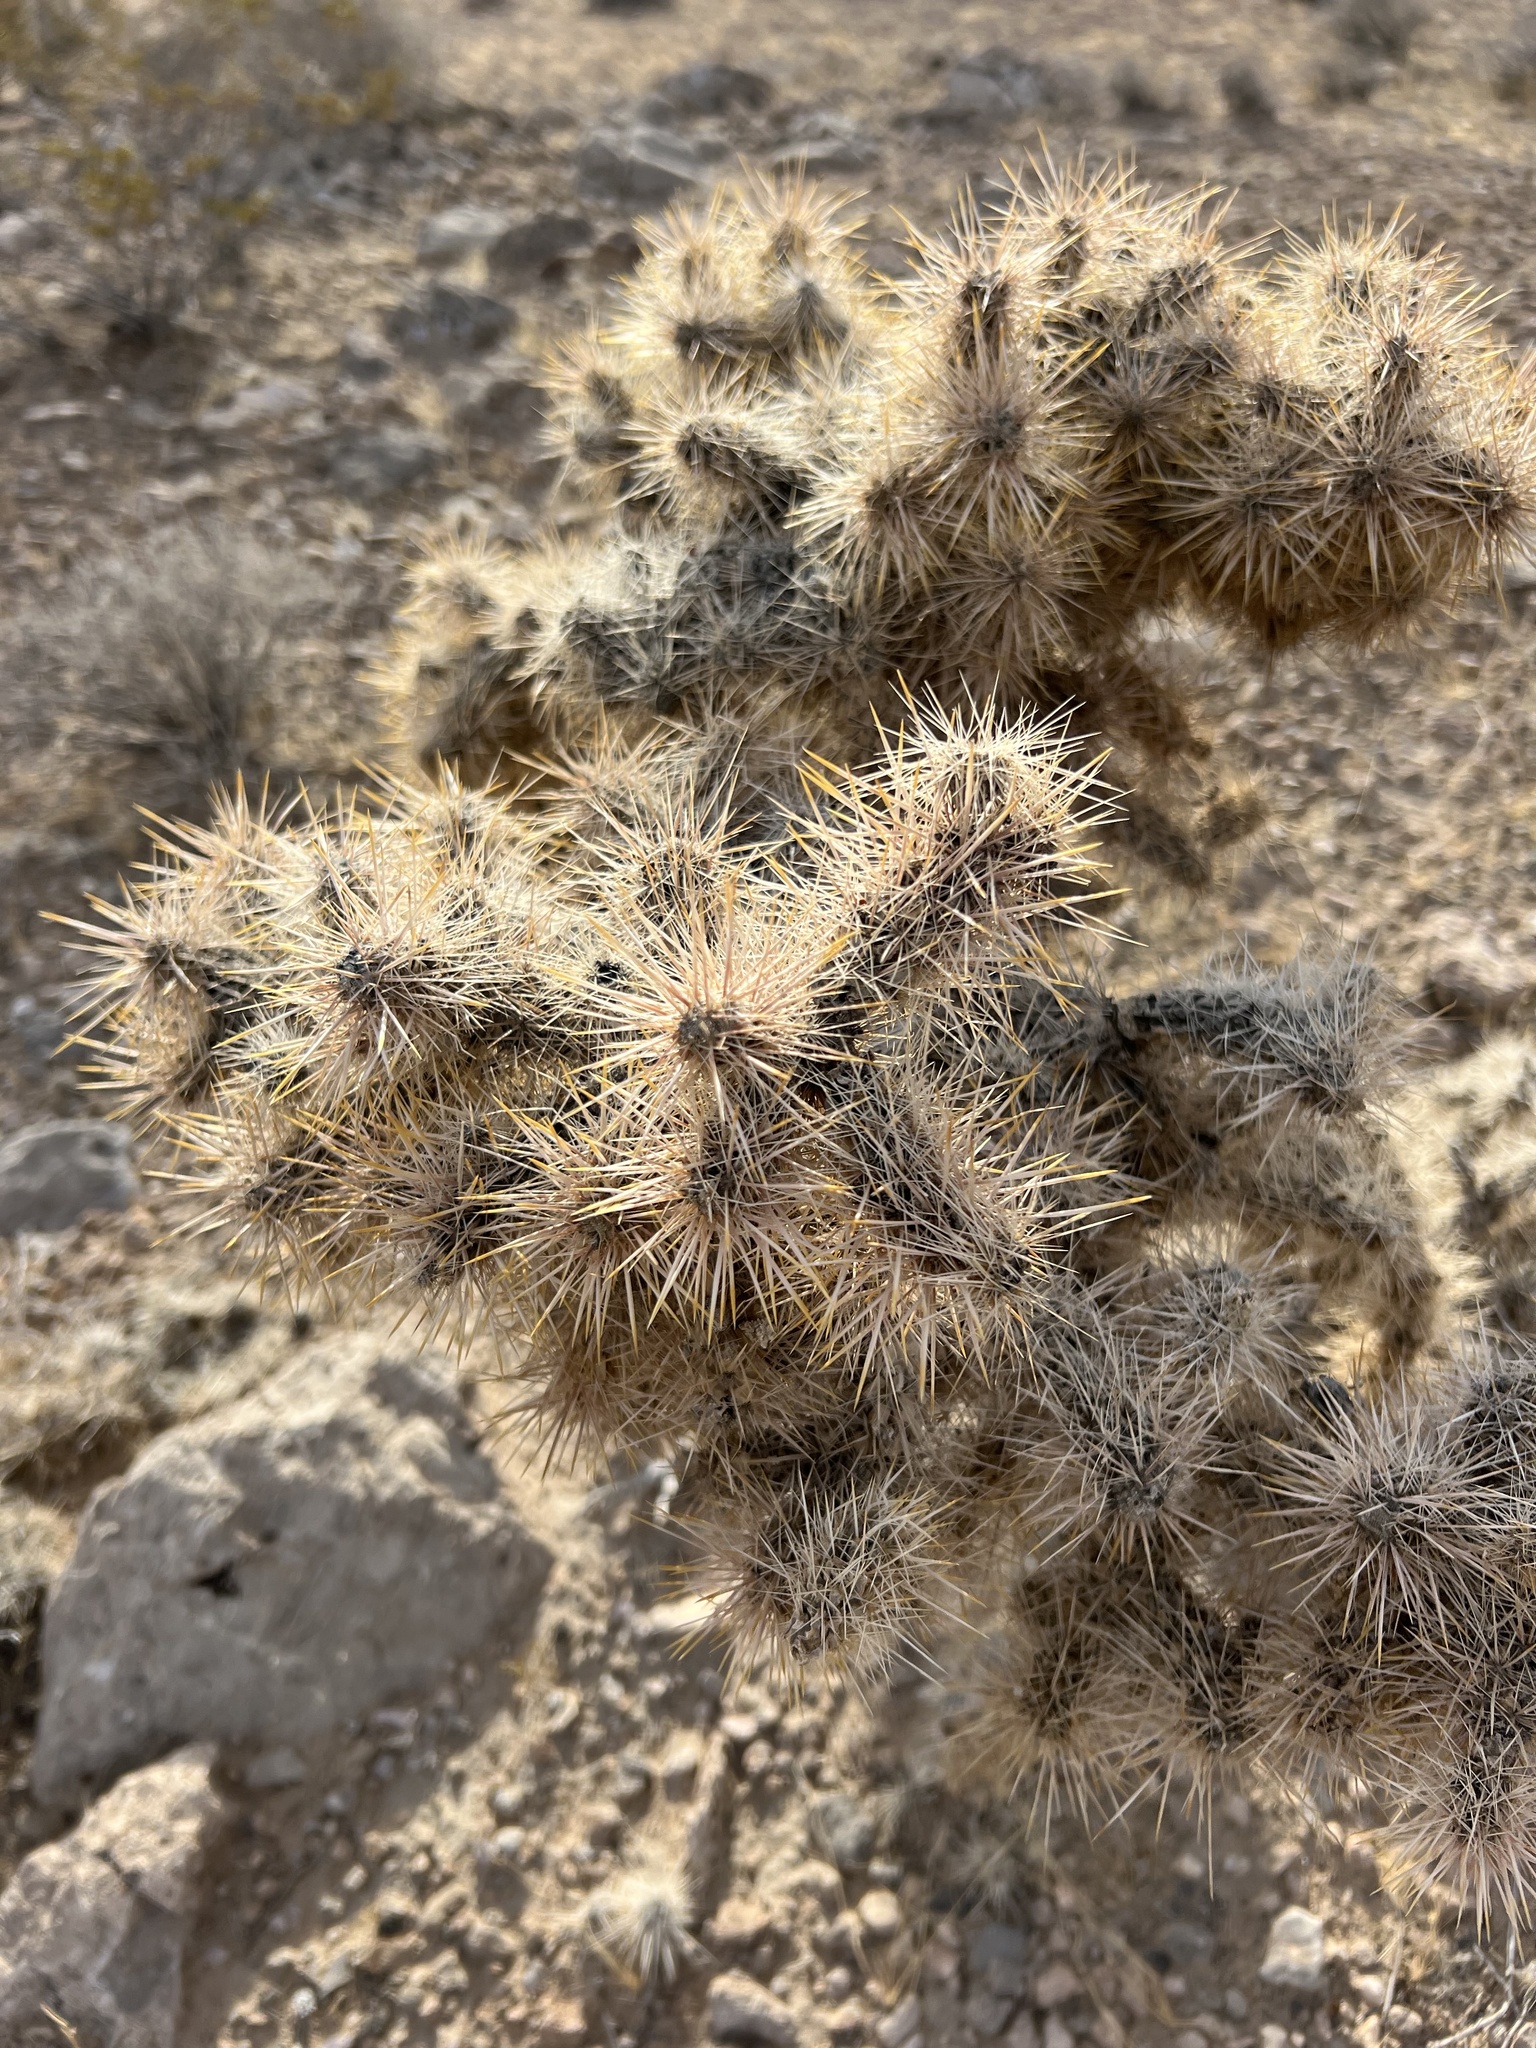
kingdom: Plantae
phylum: Tracheophyta
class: Magnoliopsida
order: Caryophyllales
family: Cactaceae
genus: Cylindropuntia
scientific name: Cylindropuntia echinocarpa
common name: Ground cholla
